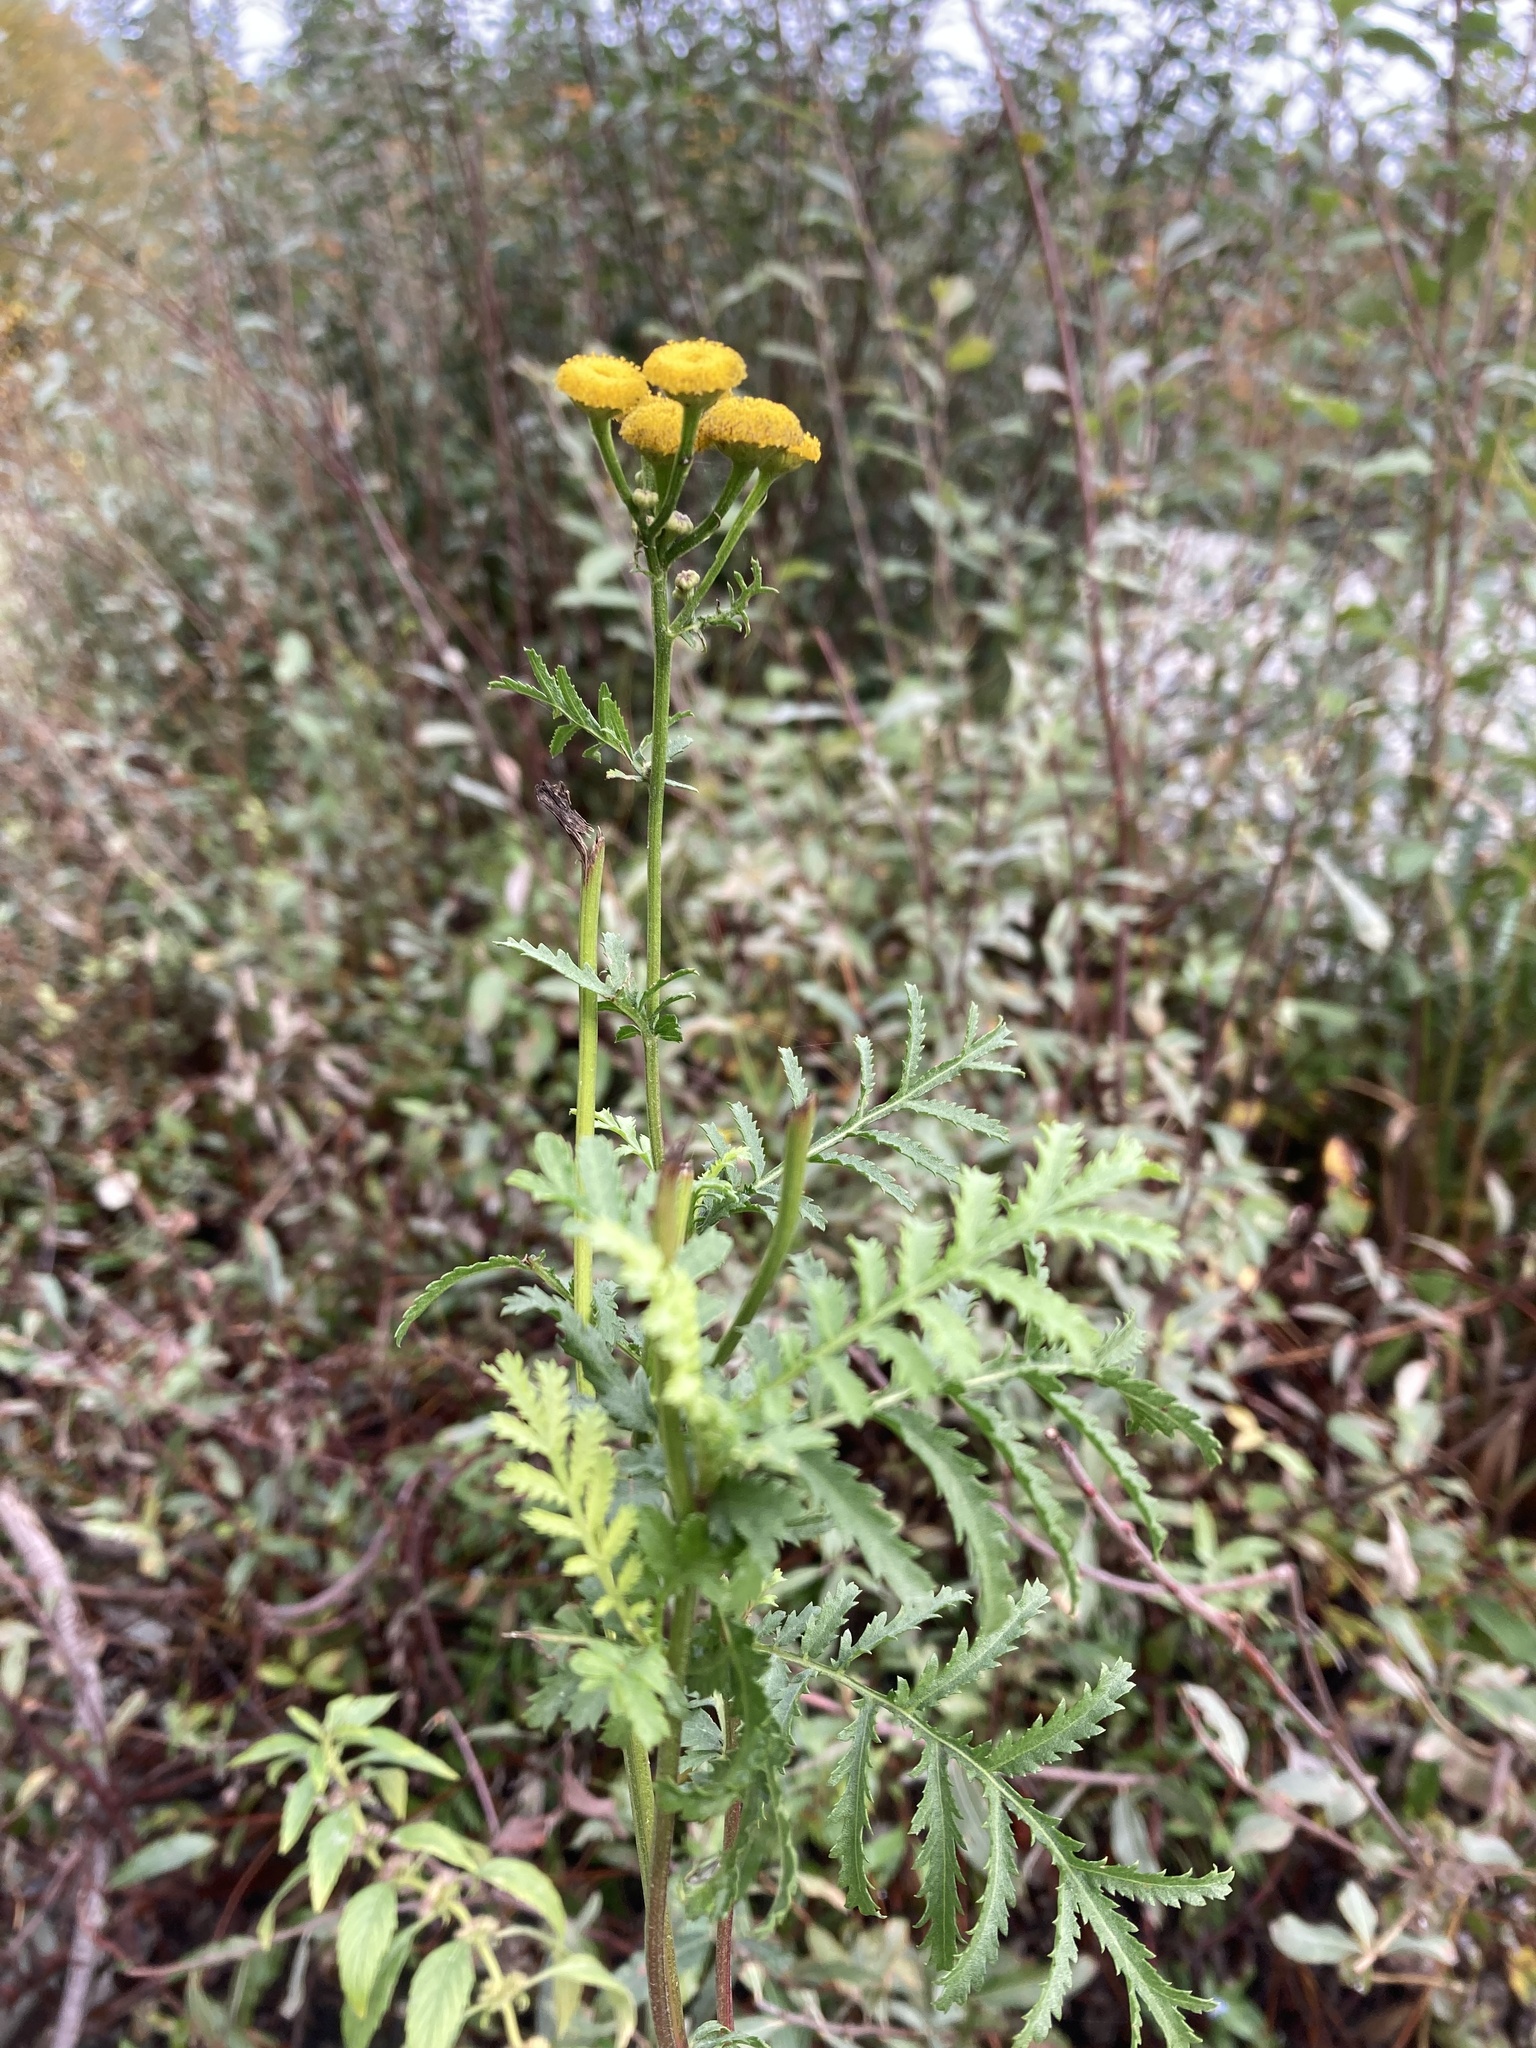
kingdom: Plantae
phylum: Tracheophyta
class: Magnoliopsida
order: Asterales
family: Asteraceae
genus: Tanacetum
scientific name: Tanacetum vulgare
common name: Common tansy
